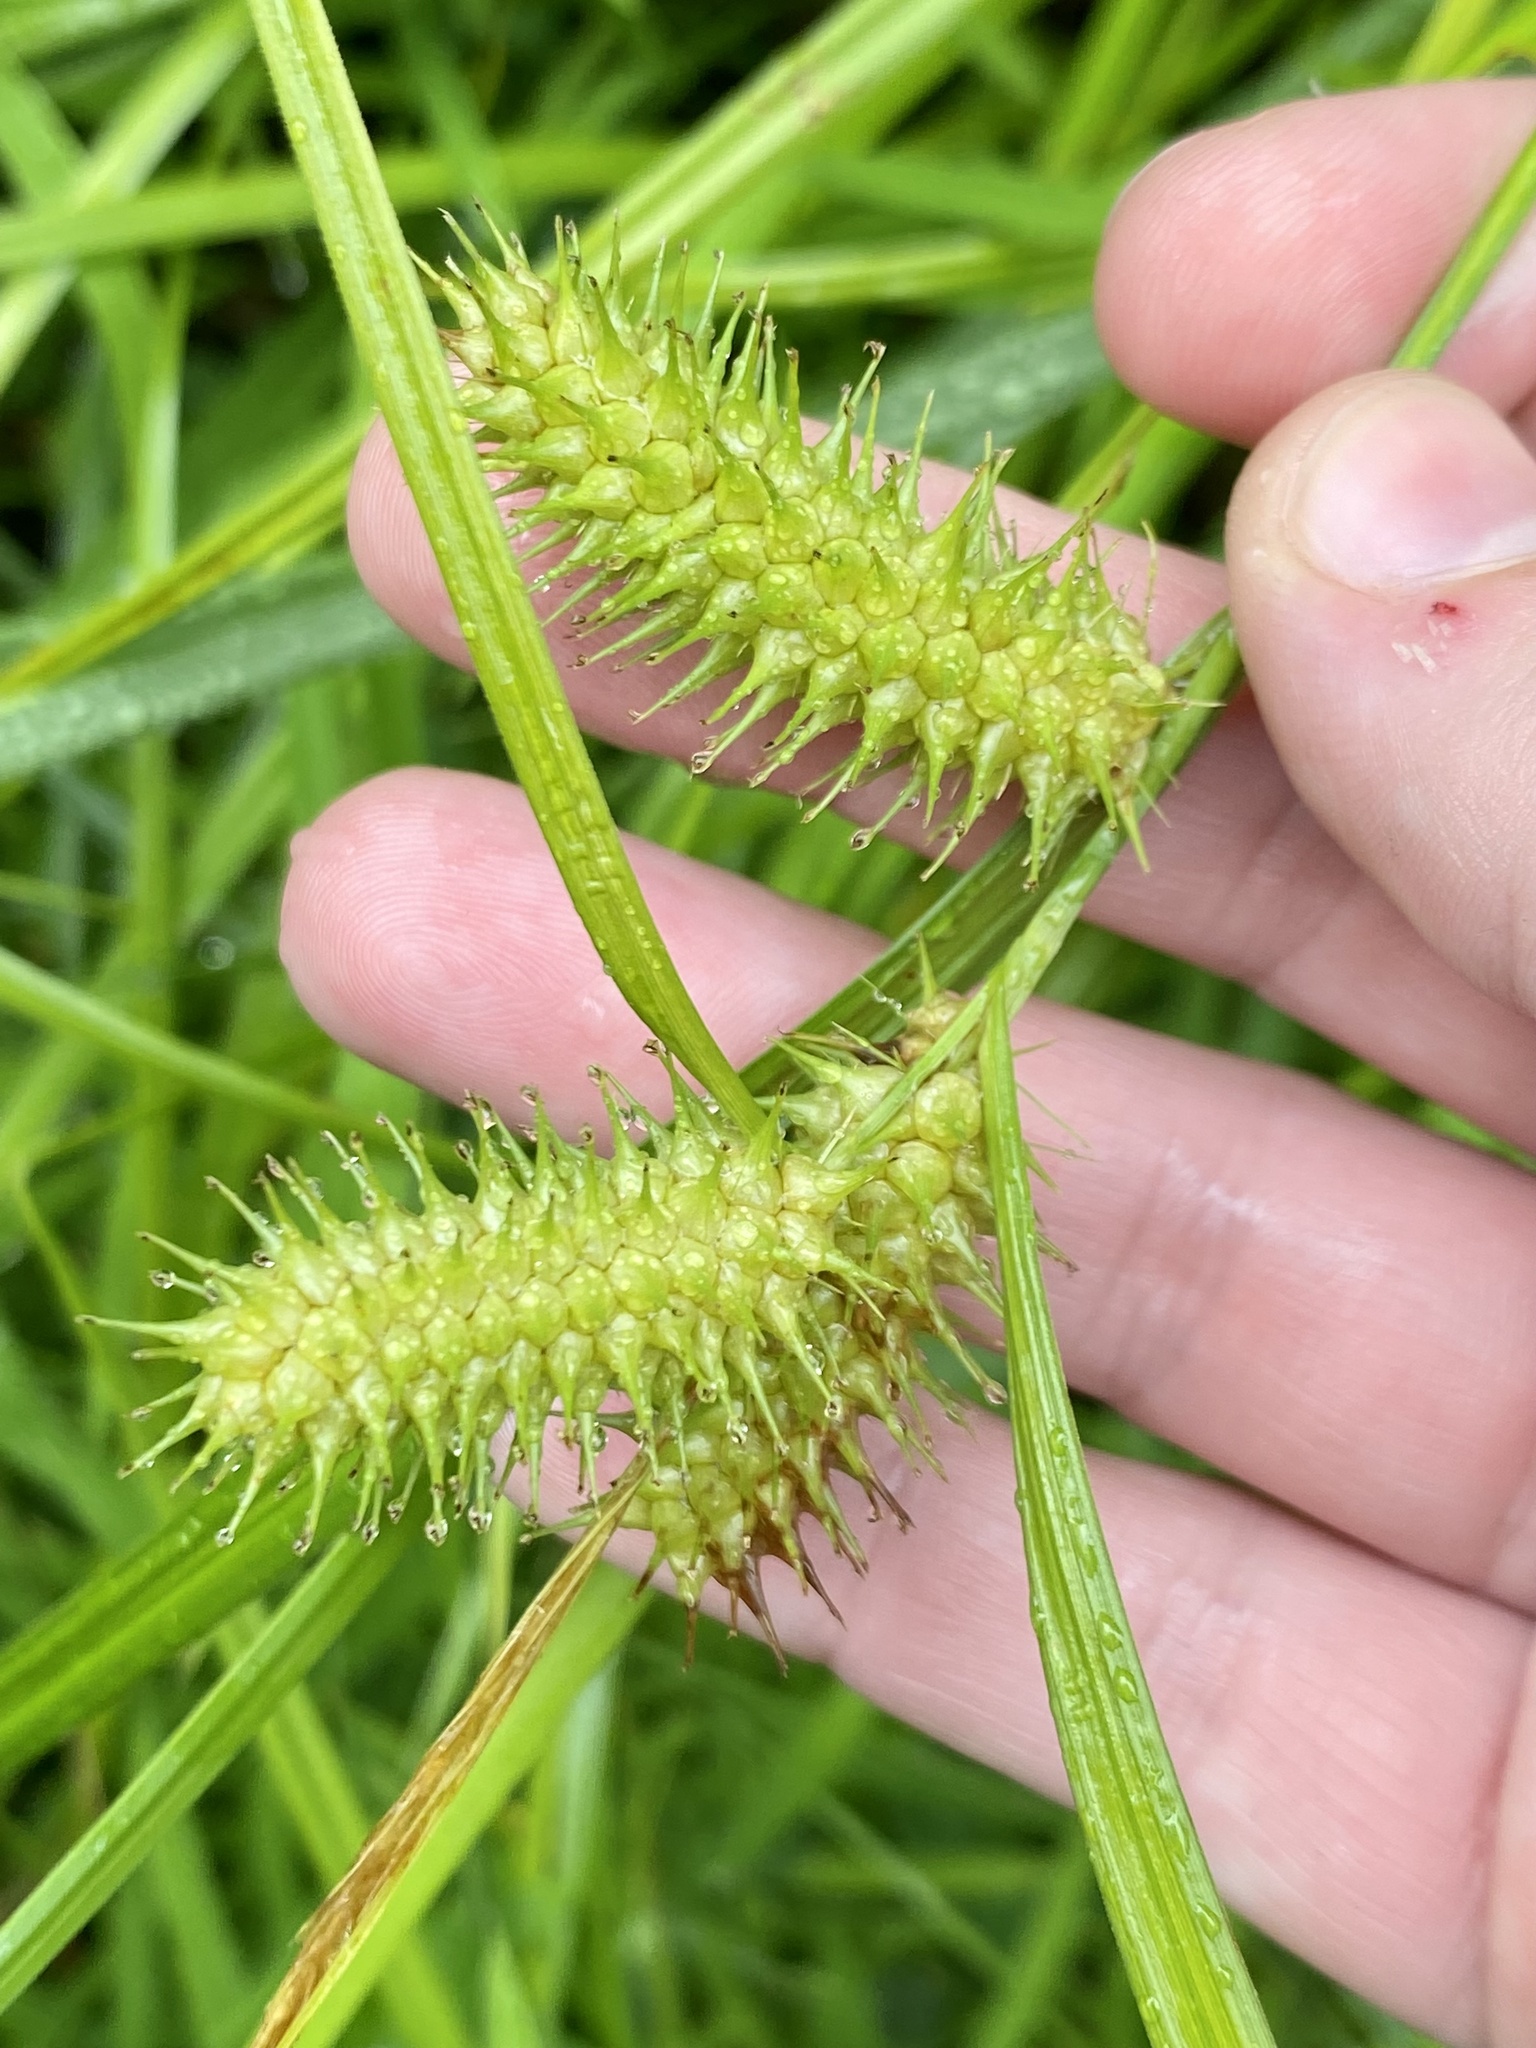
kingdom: Plantae
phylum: Tracheophyta
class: Liliopsida
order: Poales
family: Cyperaceae
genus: Carex
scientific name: Carex lurida
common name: Sallow sedge
